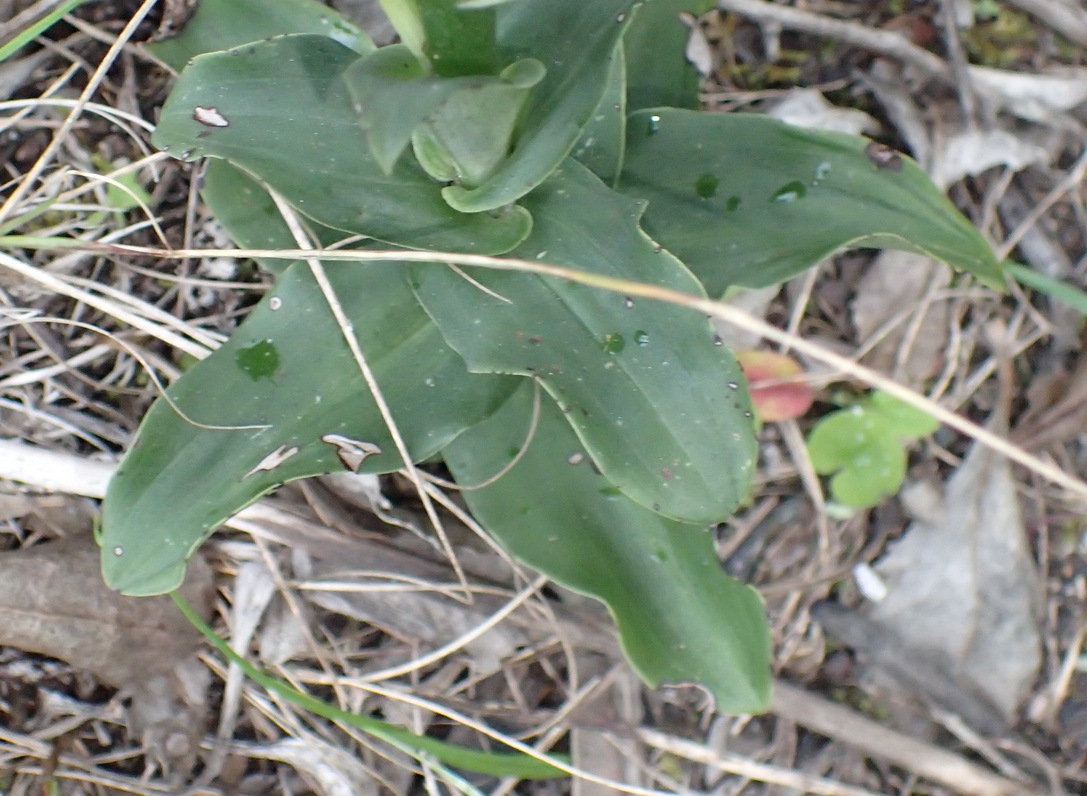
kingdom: Plantae
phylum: Tracheophyta
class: Liliopsida
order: Asparagales
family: Orchidaceae
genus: Bonatea
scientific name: Bonatea speciosa
